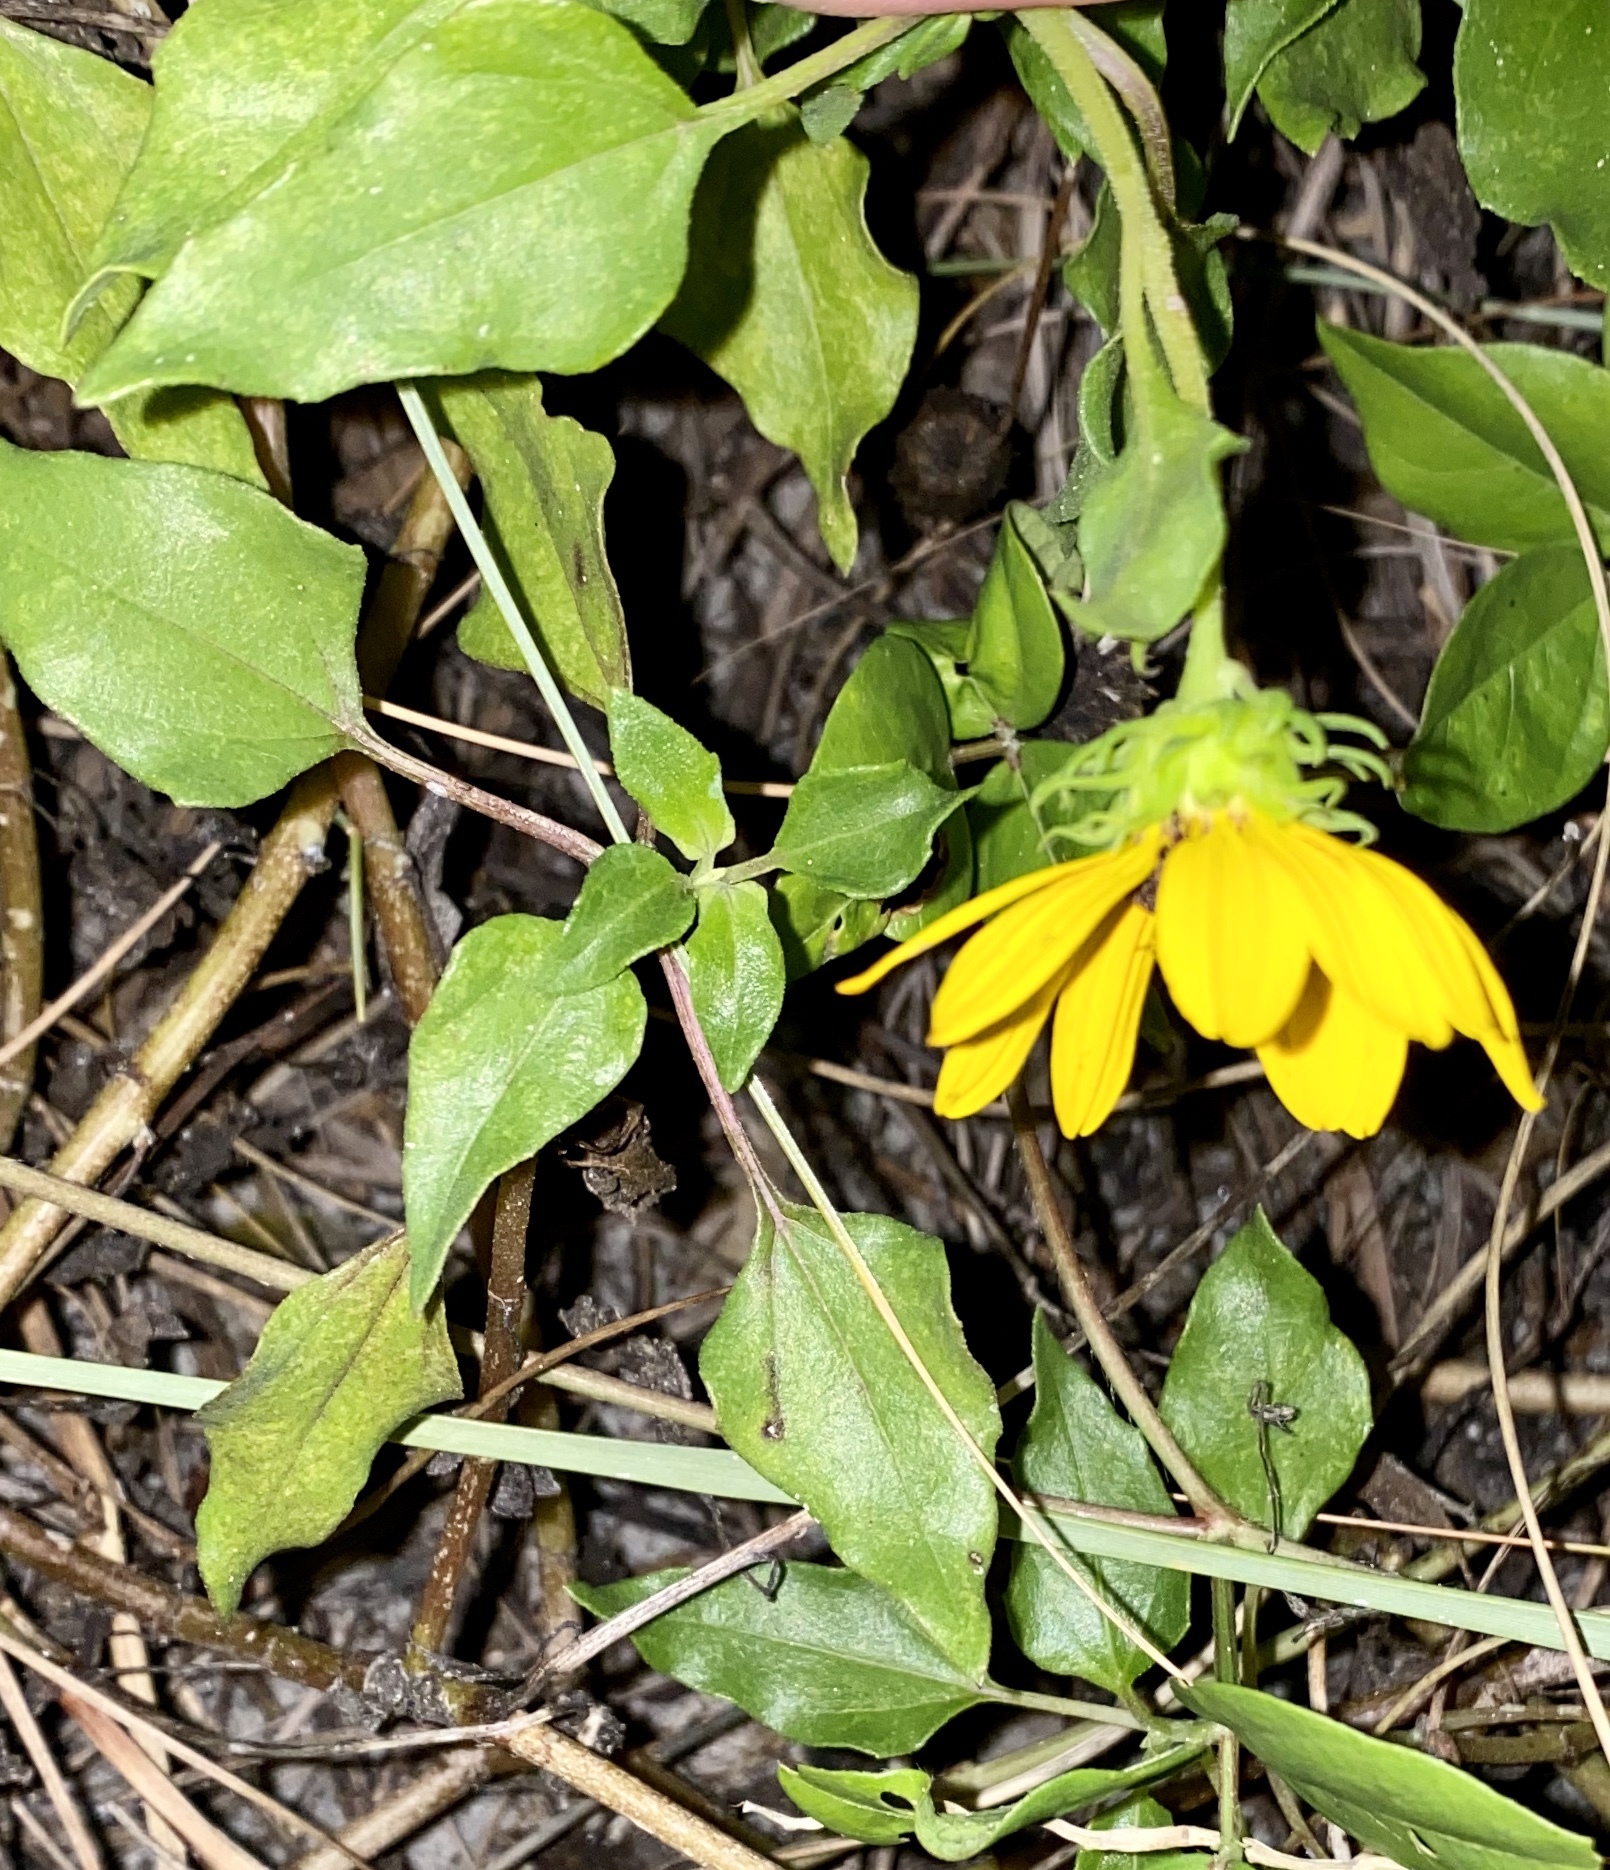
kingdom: Plantae
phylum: Tracheophyta
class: Magnoliopsida
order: Asterales
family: Asteraceae
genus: Helianthus
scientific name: Helianthus debilis
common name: Weak sunflower
